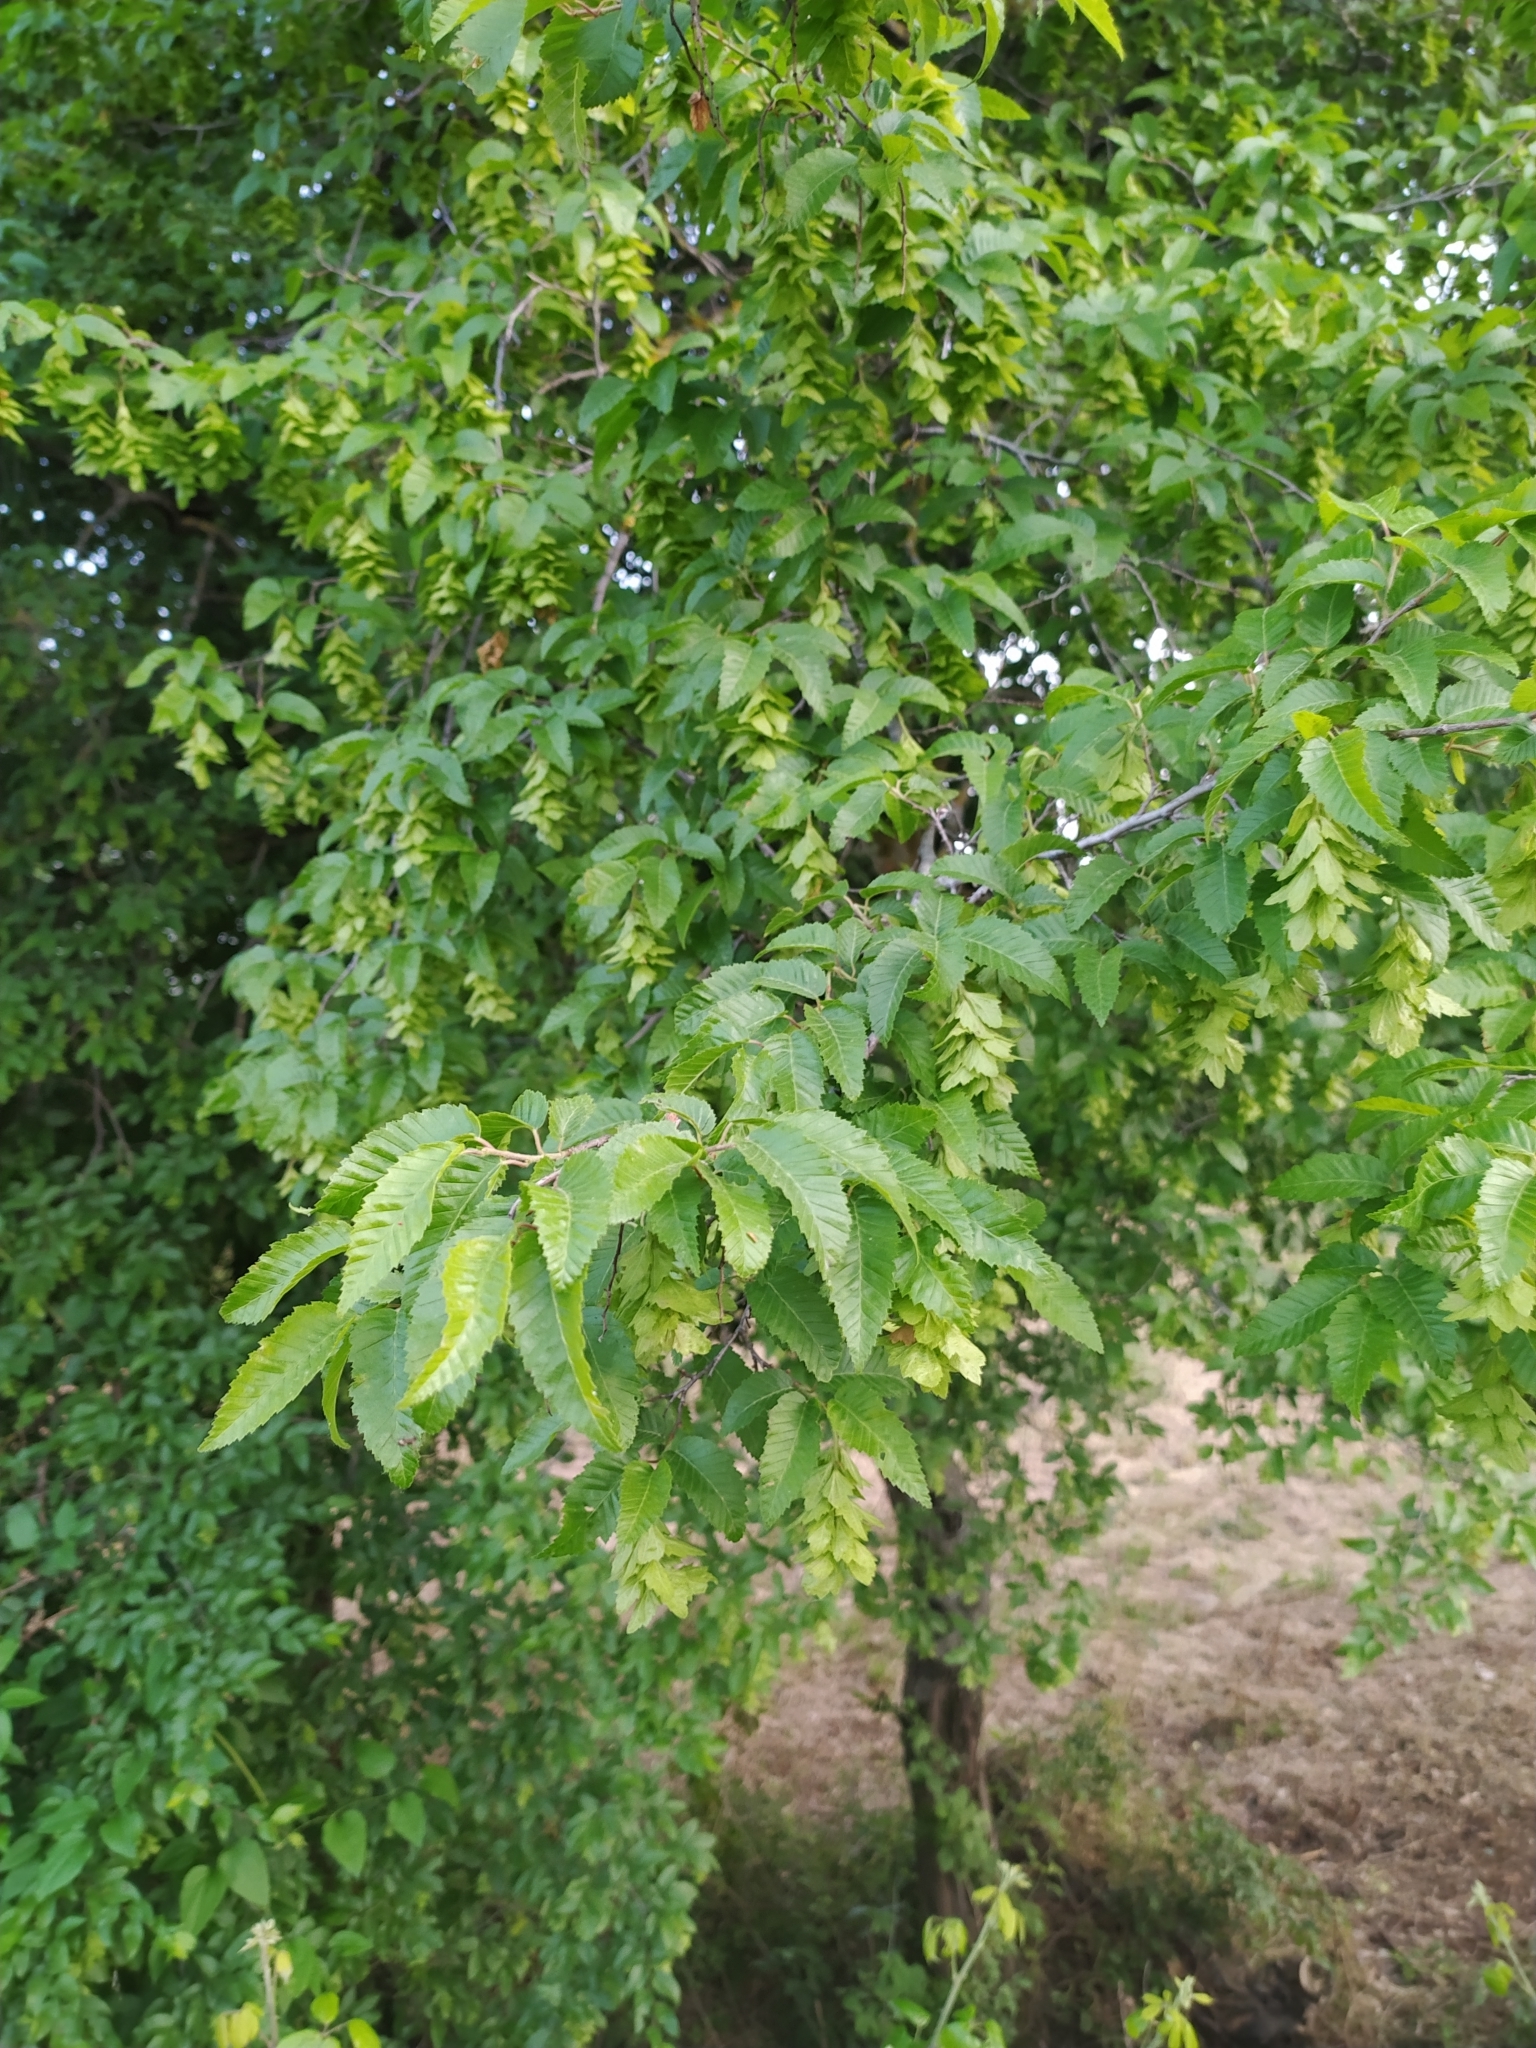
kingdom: Plantae
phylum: Tracheophyta
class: Magnoliopsida
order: Fagales
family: Betulaceae
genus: Carpinus
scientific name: Carpinus orientalis
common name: Eastern hornbeam
